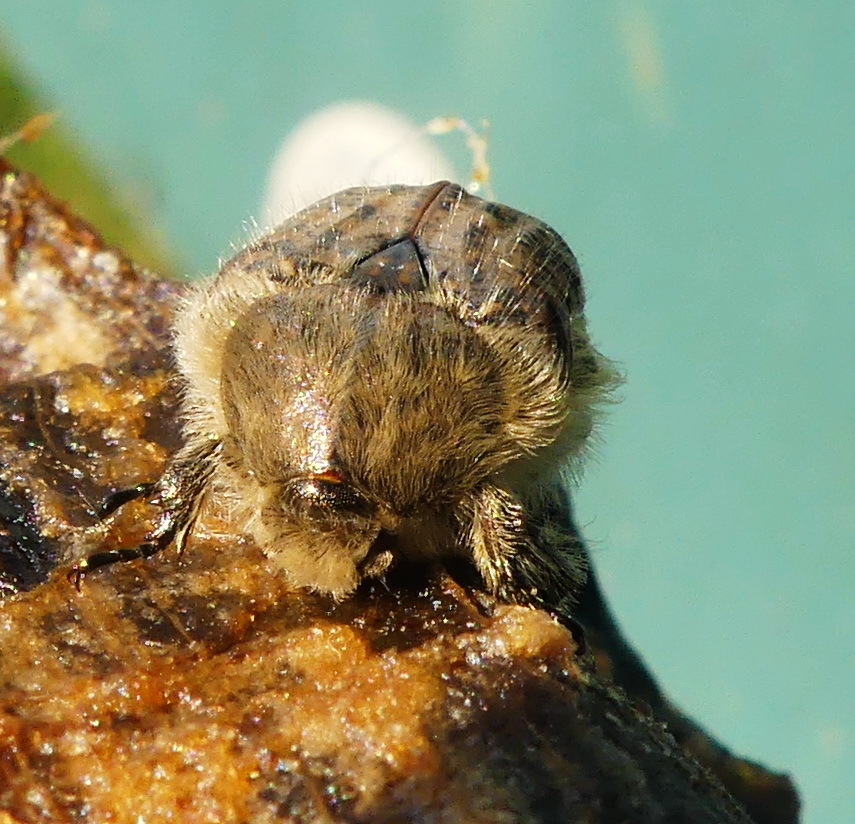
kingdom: Animalia
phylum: Arthropoda
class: Insecta
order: Coleoptera
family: Scarabaeidae
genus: Euphoria
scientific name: Euphoria inda
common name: Bumble flower beetle
